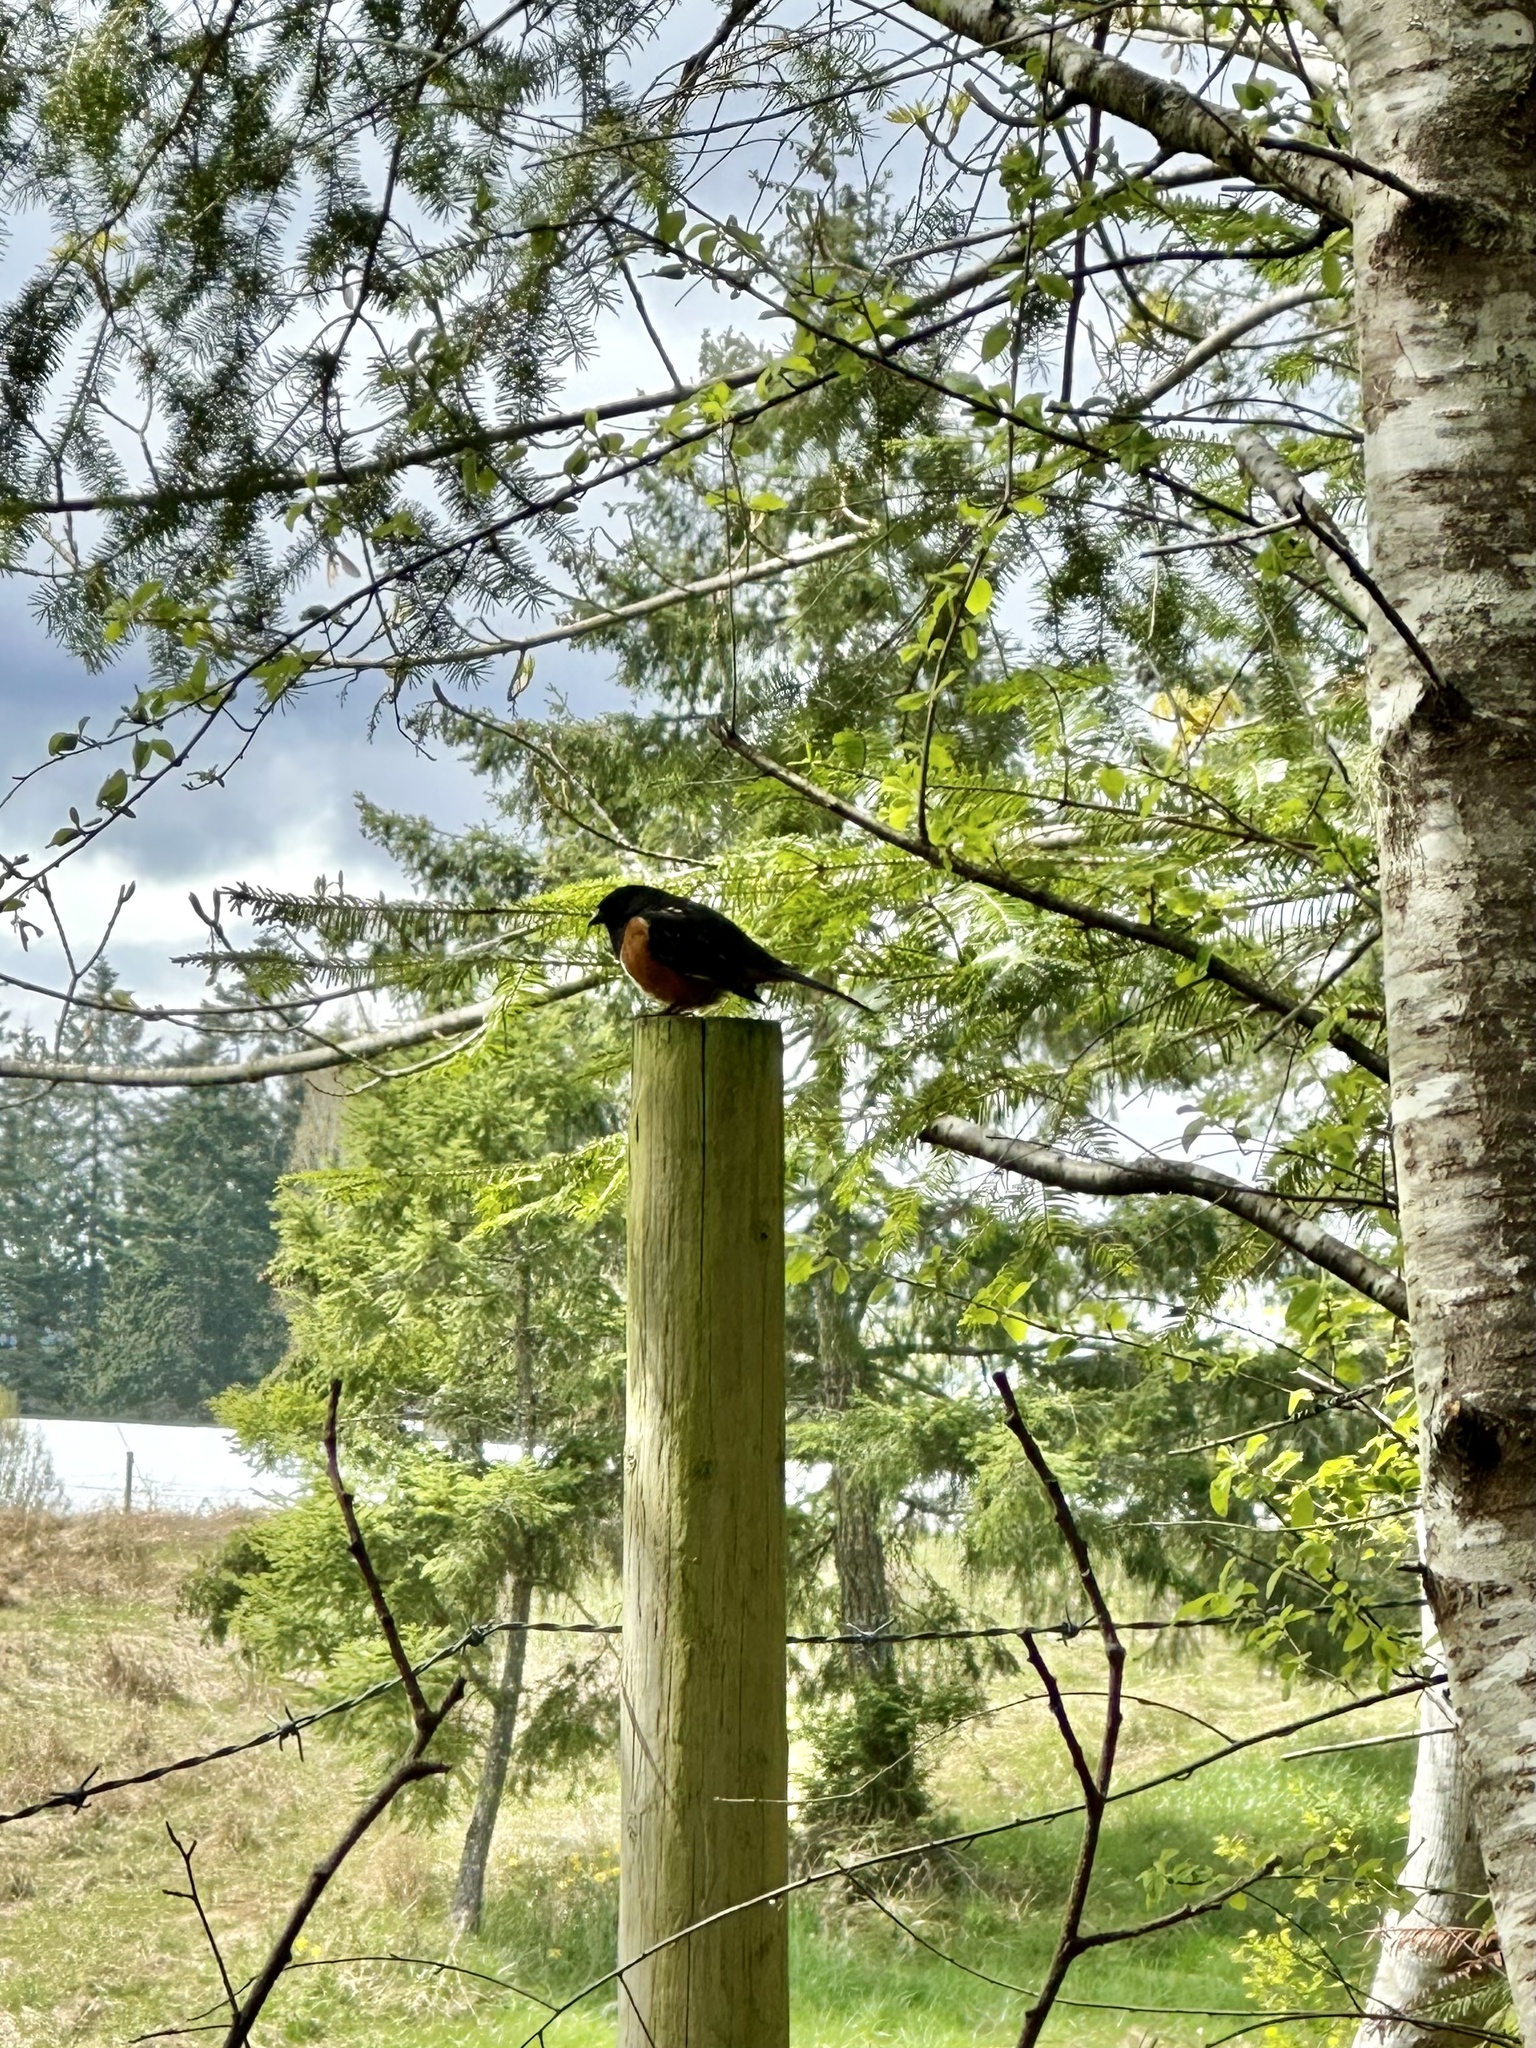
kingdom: Animalia
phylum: Chordata
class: Aves
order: Passeriformes
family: Passerellidae
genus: Pipilo
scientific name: Pipilo maculatus
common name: Spotted towhee
